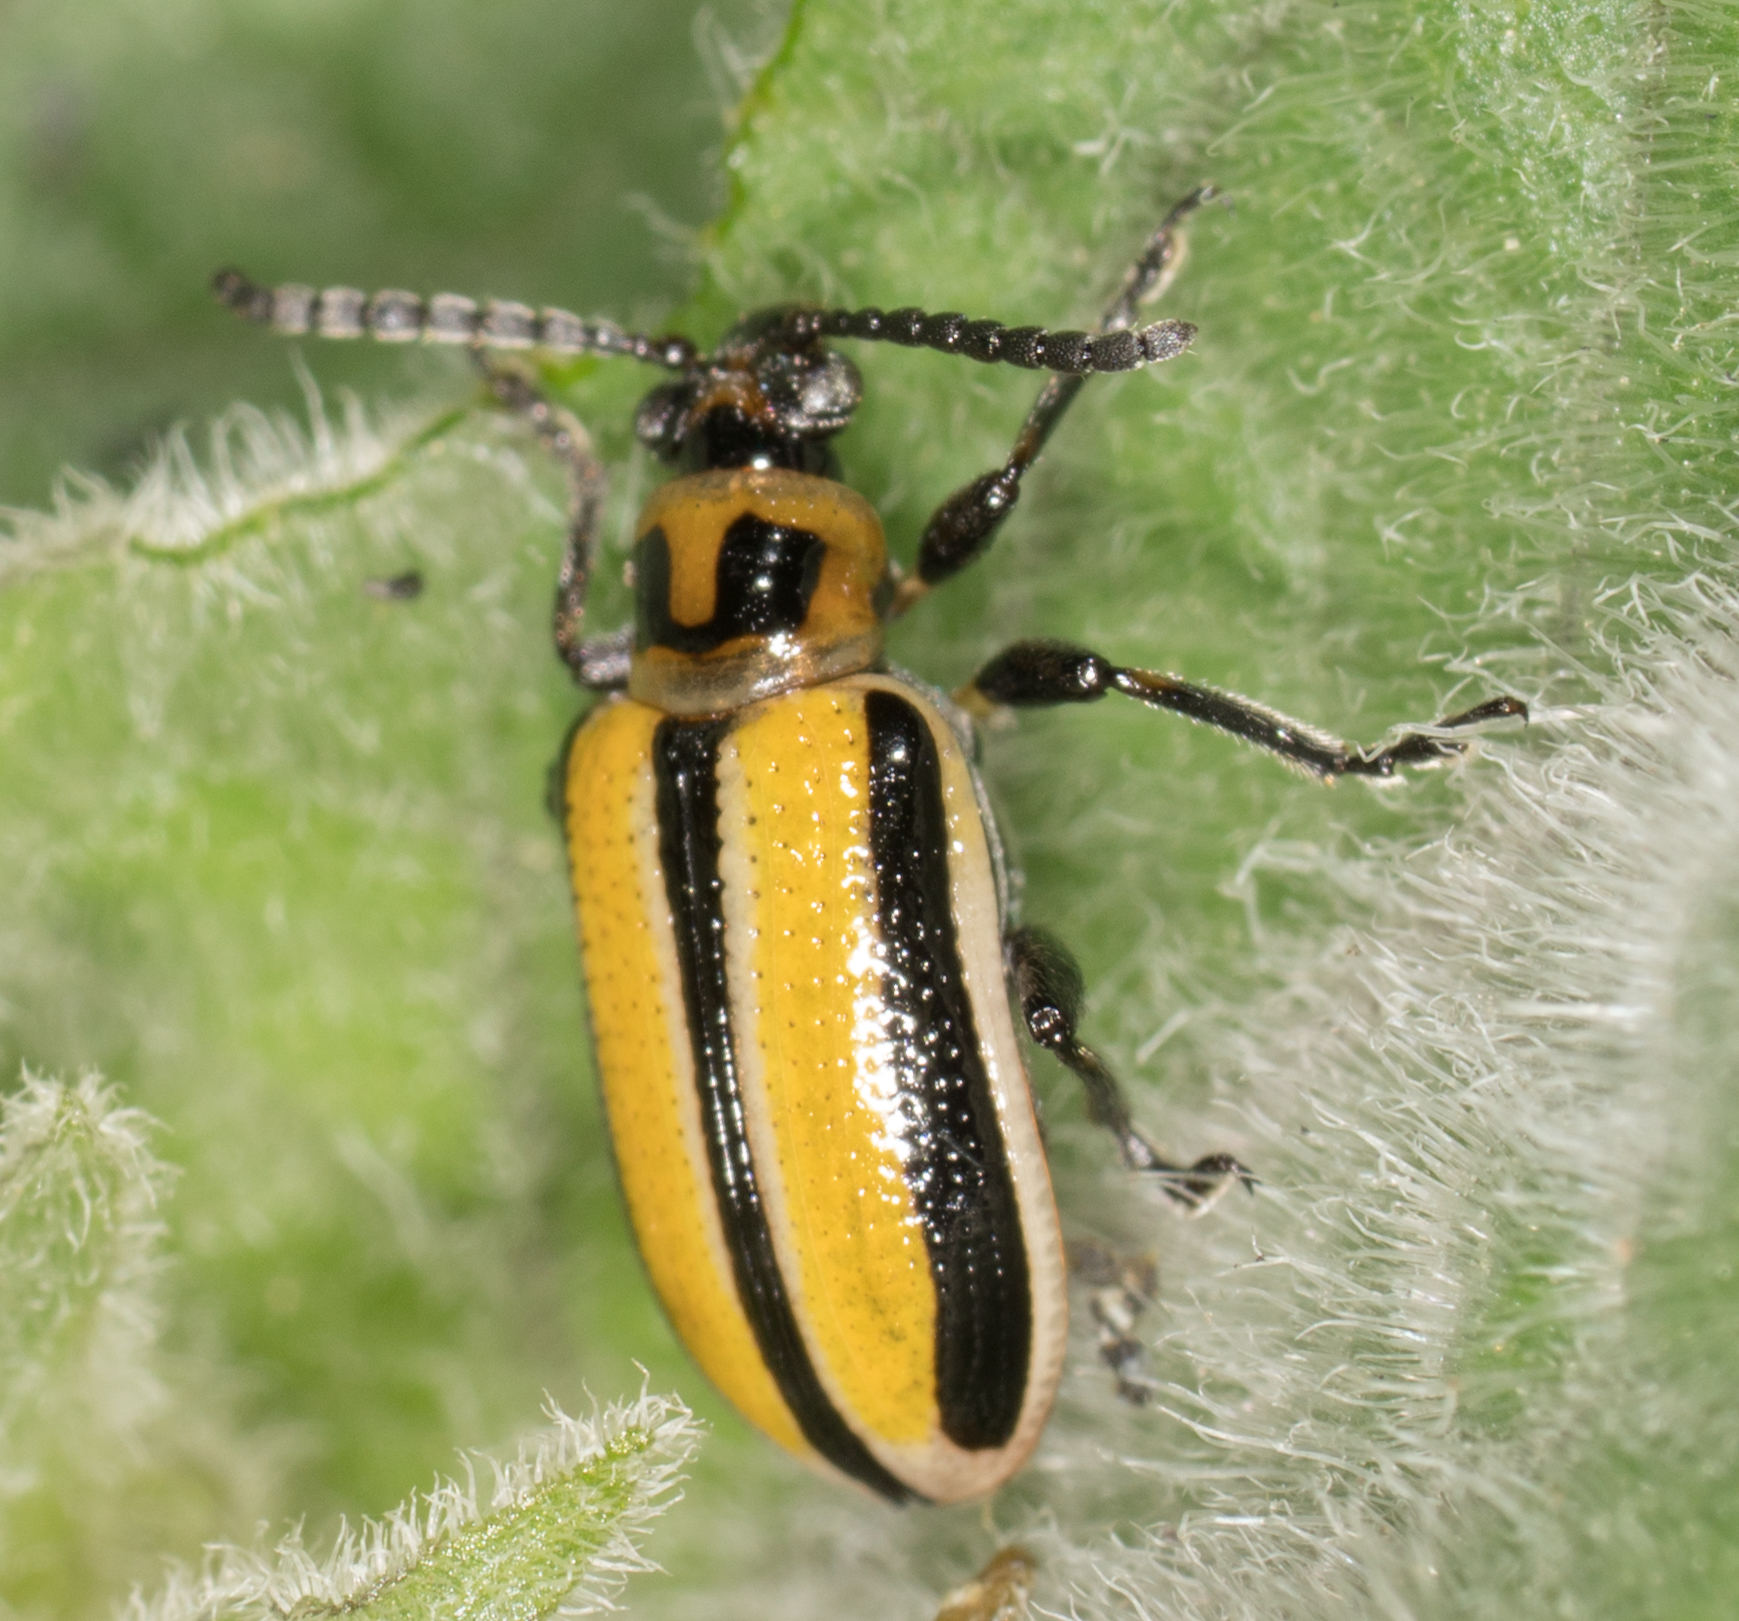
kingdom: Animalia
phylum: Arthropoda
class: Insecta
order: Coleoptera
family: Chrysomelidae
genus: Lema
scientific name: Lema daturaphila
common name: Leaf beetle
